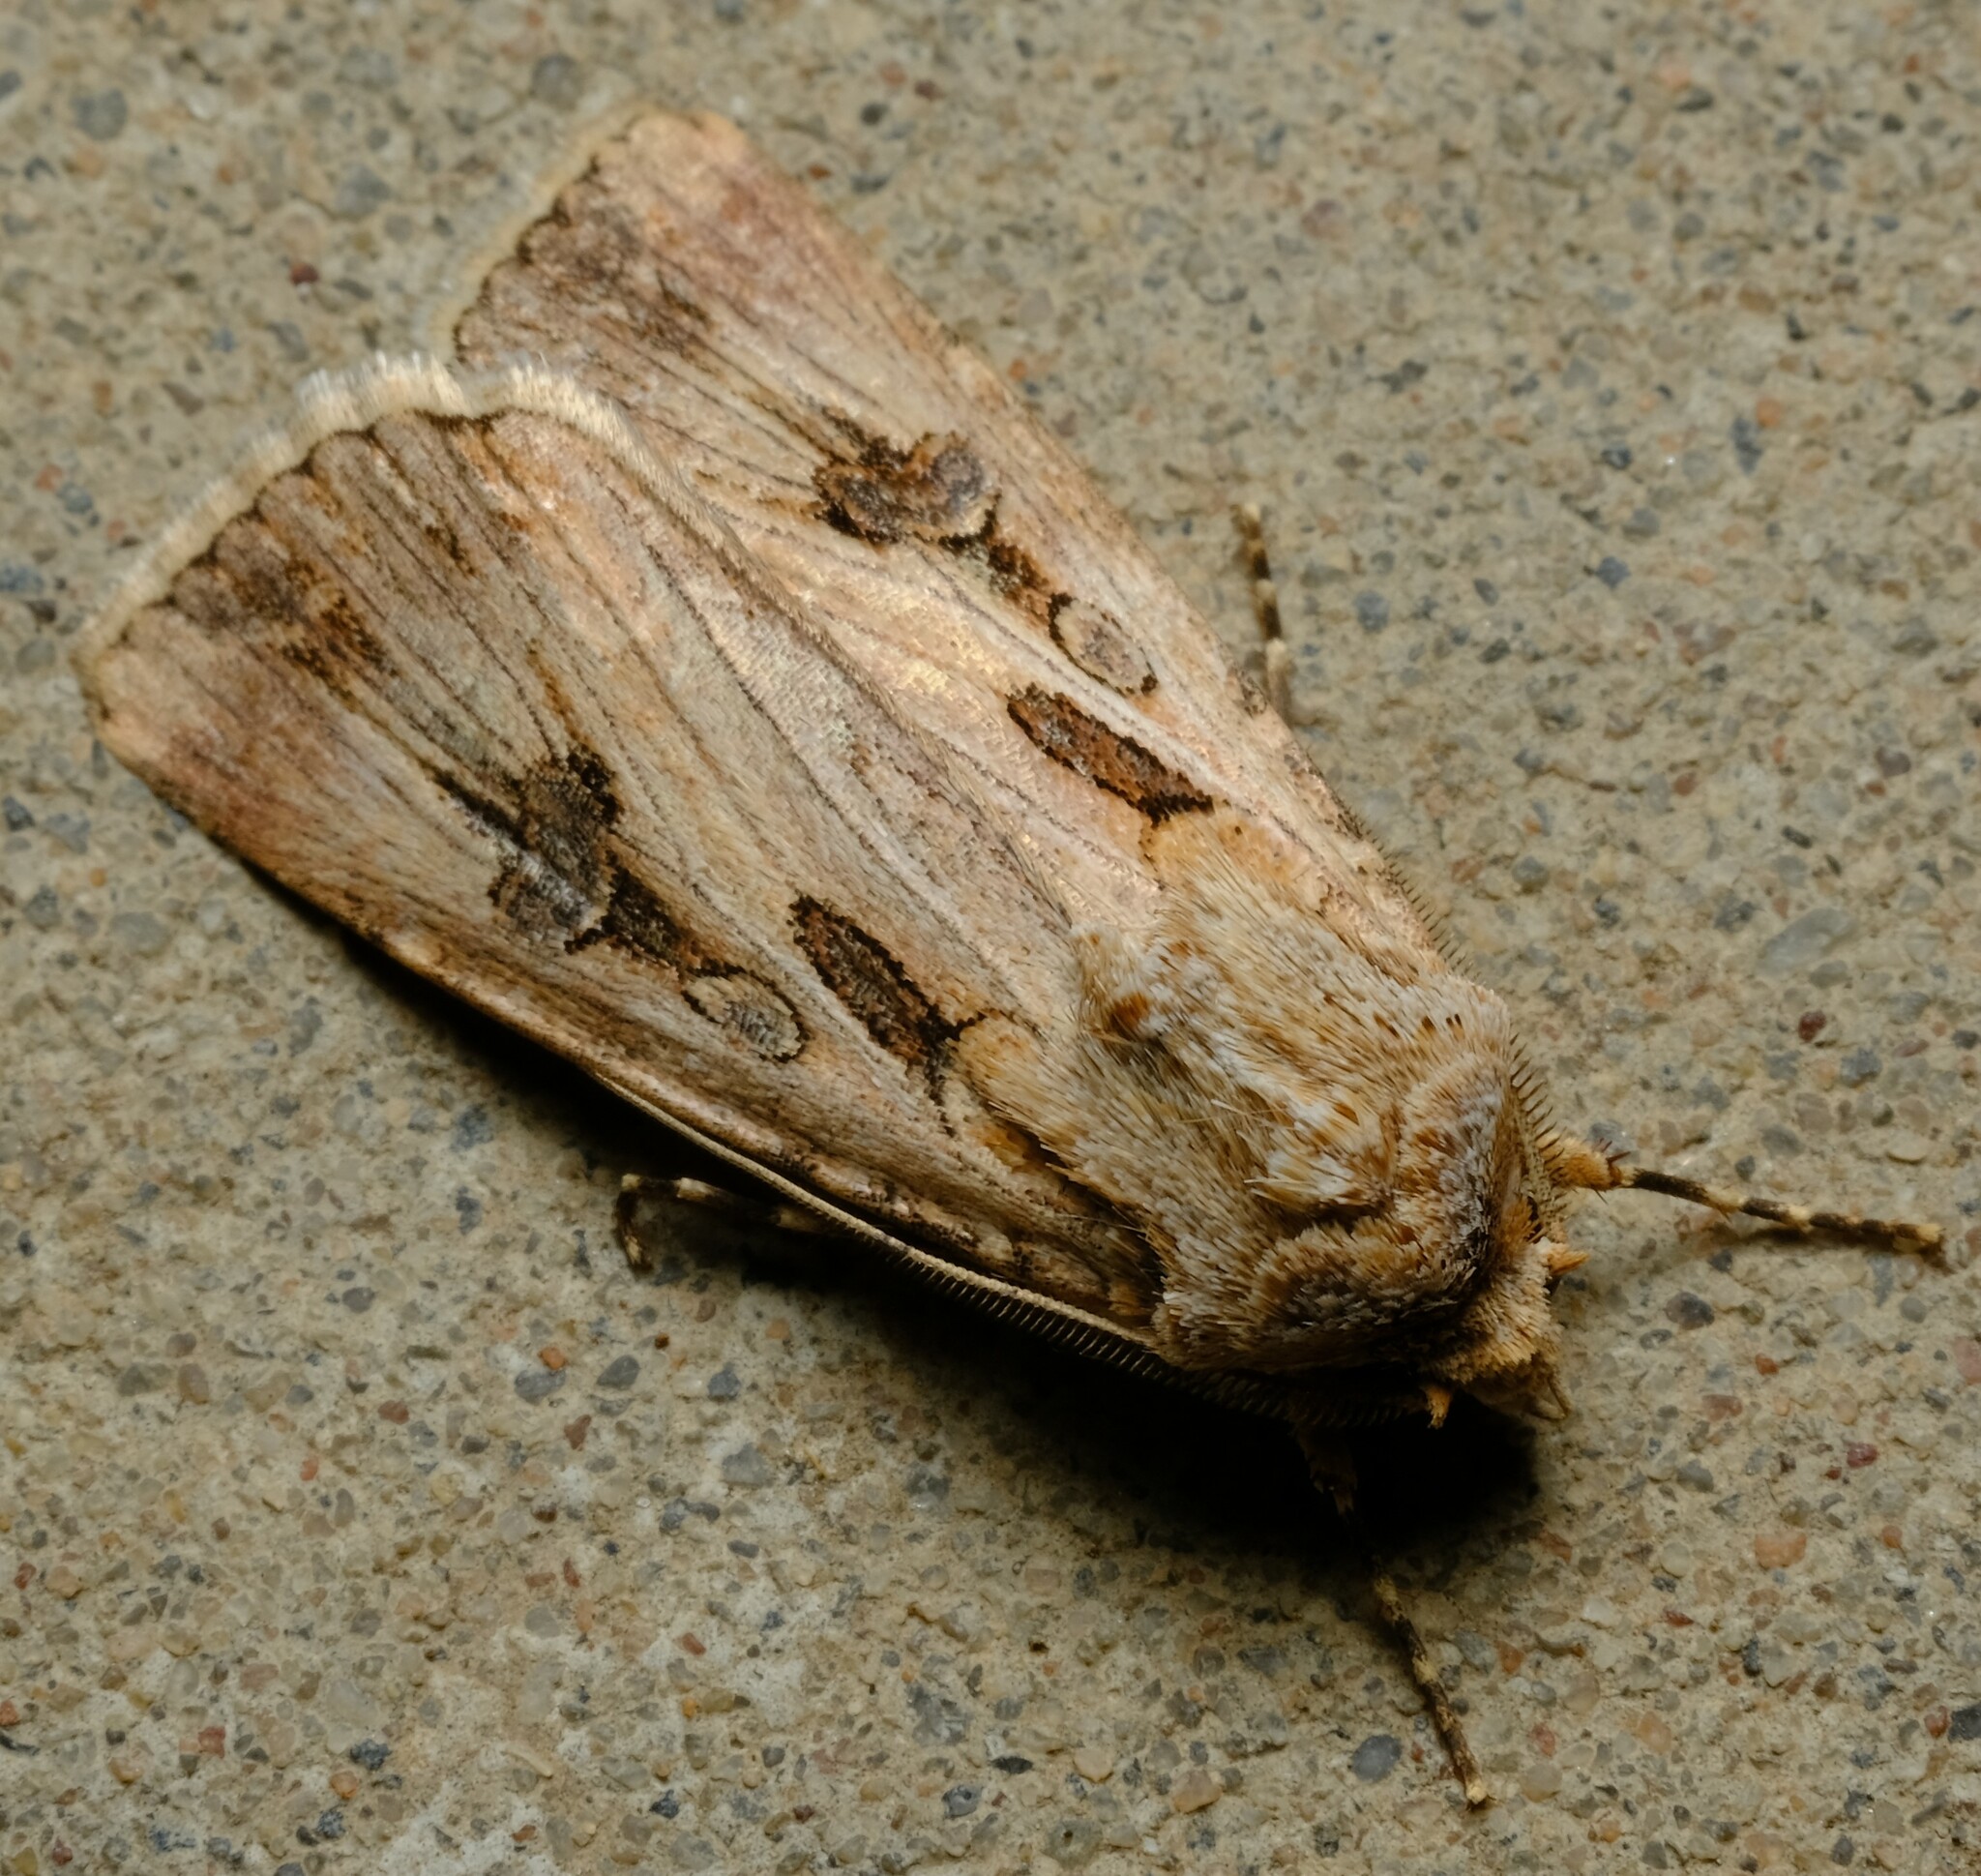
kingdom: Animalia
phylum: Arthropoda
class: Insecta
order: Lepidoptera
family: Noctuidae
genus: Agrotis
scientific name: Agrotis munda
